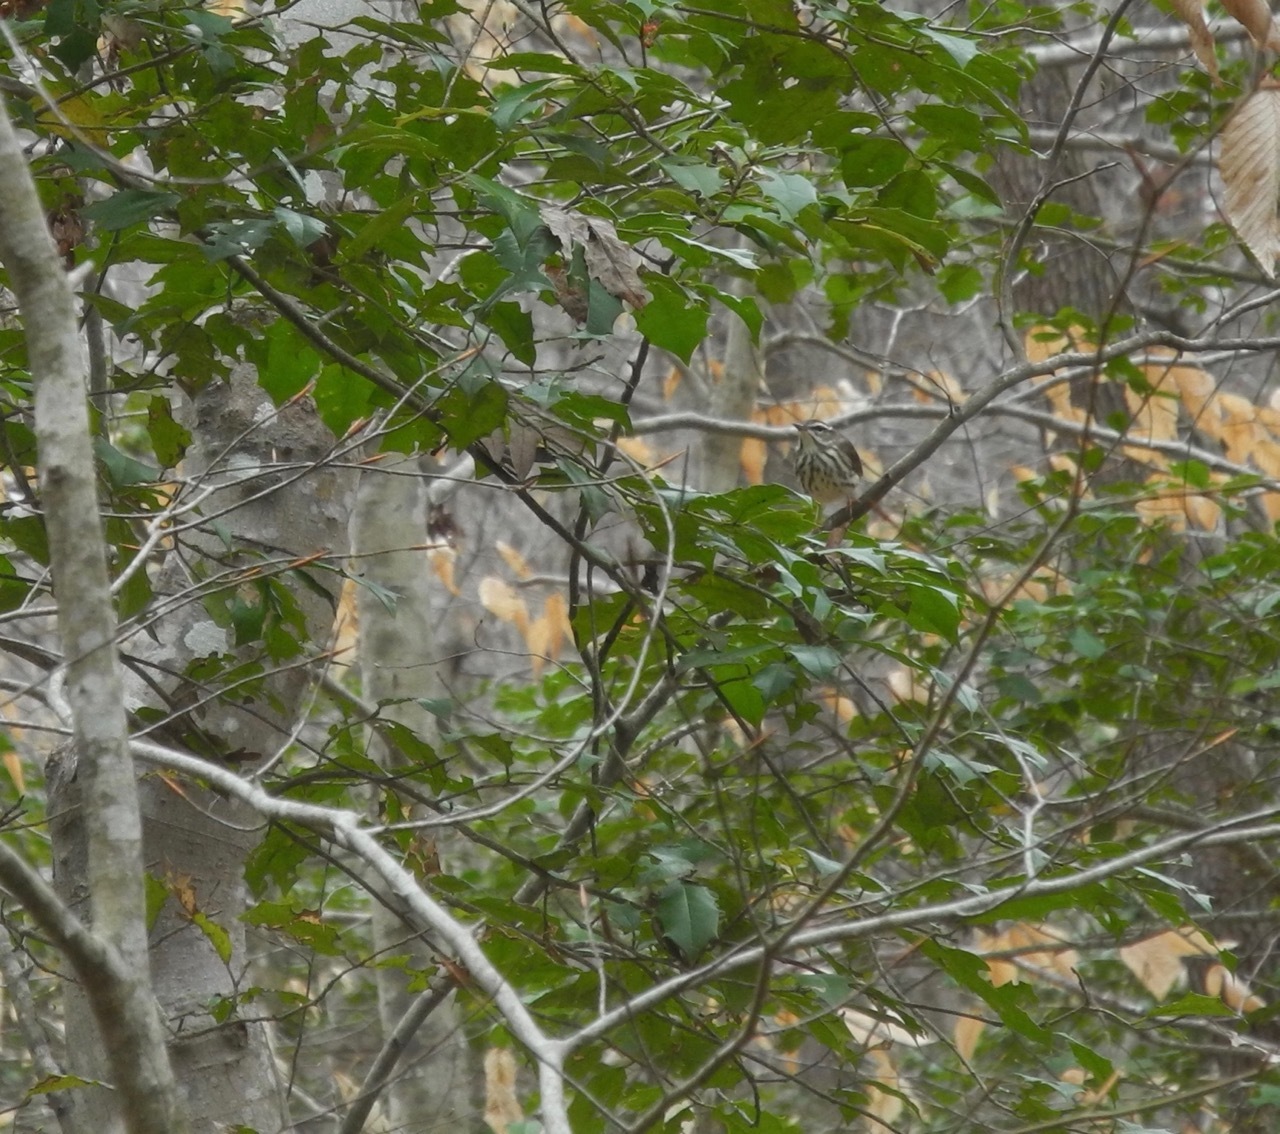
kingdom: Plantae
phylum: Tracheophyta
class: Magnoliopsida
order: Aquifoliales
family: Aquifoliaceae
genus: Ilex
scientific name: Ilex opaca
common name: American holly
